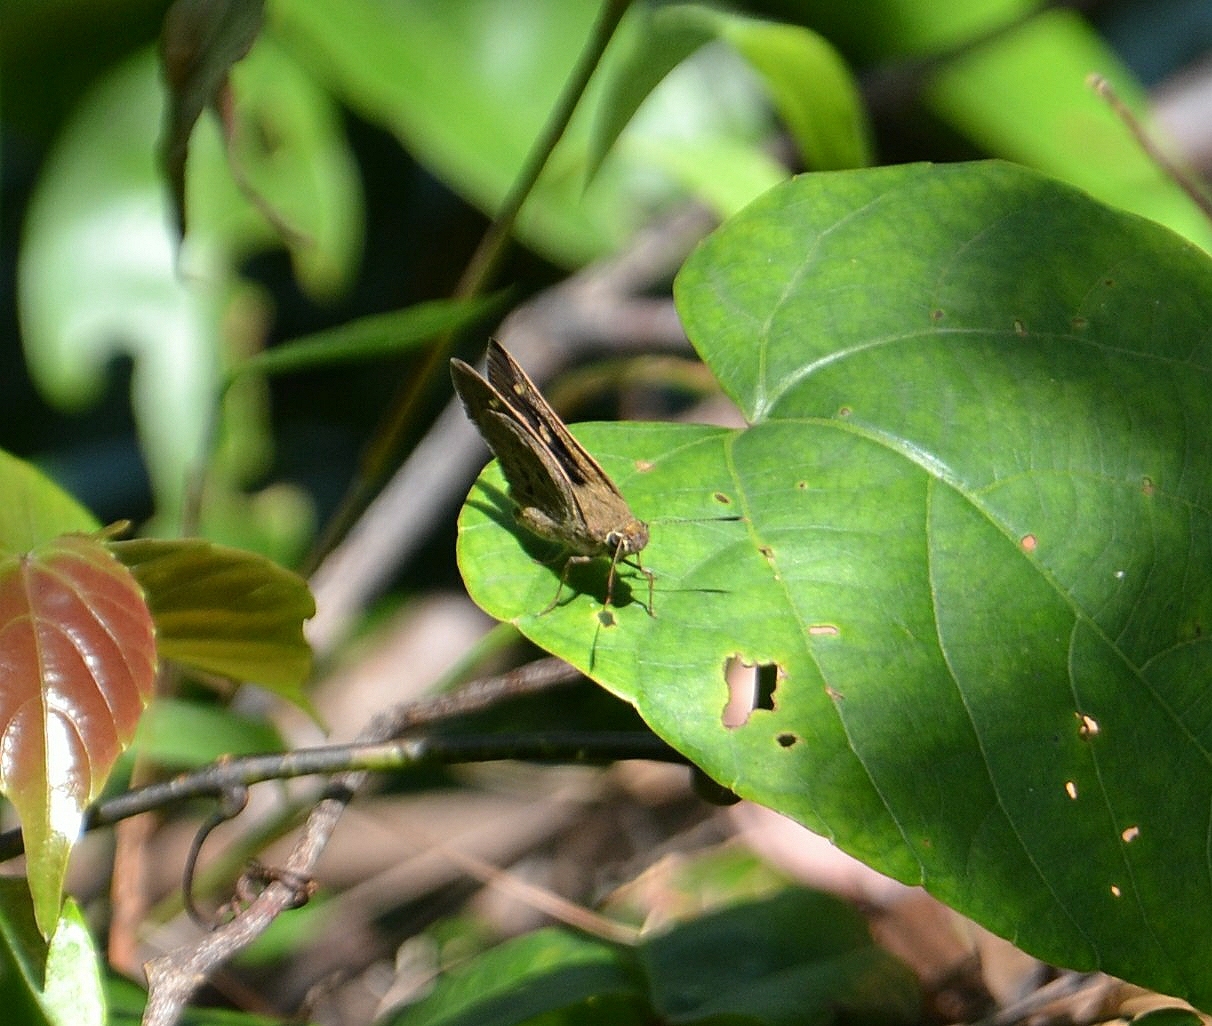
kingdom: Animalia
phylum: Arthropoda
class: Insecta
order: Lepidoptera
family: Hesperiidae
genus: Suastus
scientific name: Suastus gremius
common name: Indian palm bob
